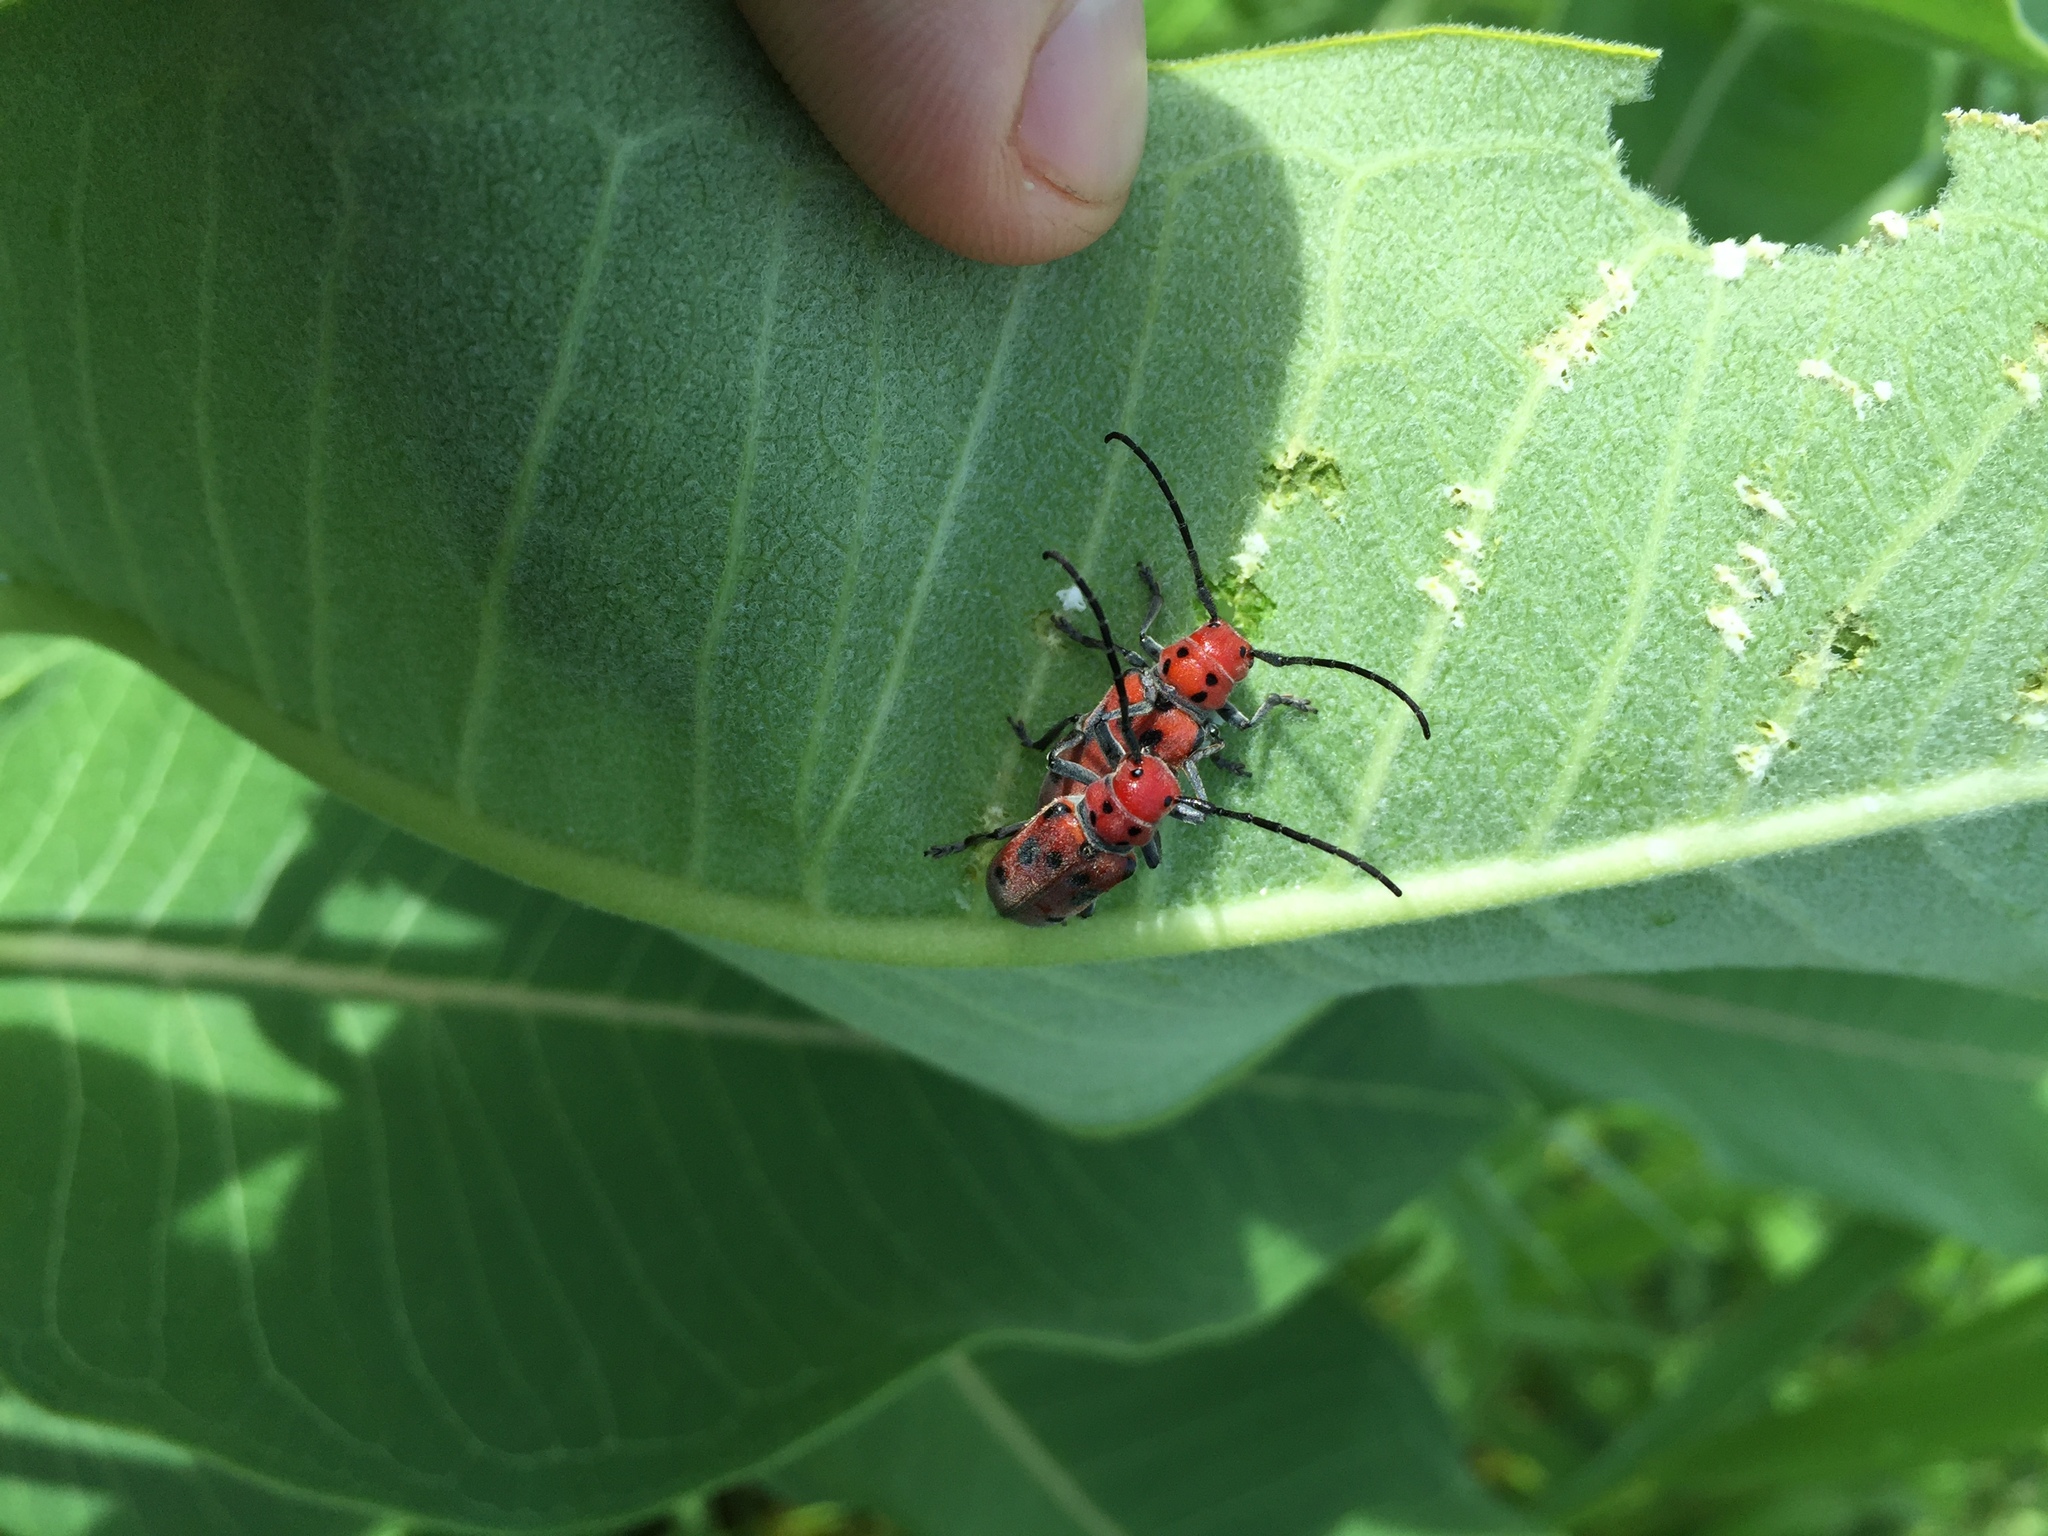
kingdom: Animalia
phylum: Arthropoda
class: Insecta
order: Coleoptera
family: Cerambycidae
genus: Tetraopes
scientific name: Tetraopes tetrophthalmus
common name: Red milkweed beetle
